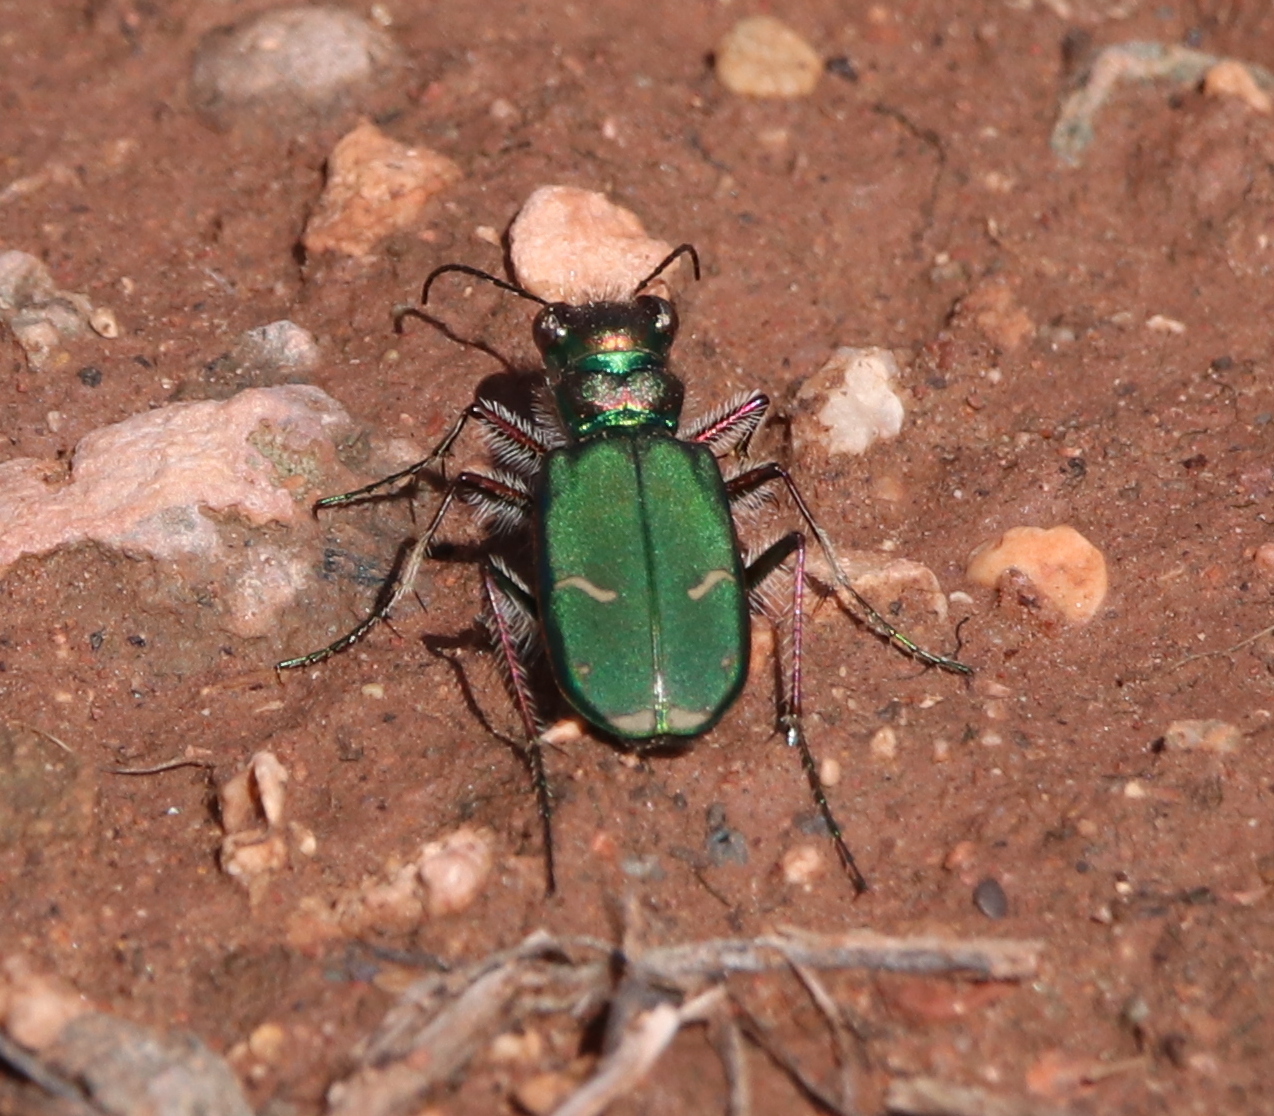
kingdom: Animalia
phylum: Arthropoda
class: Insecta
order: Coleoptera
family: Carabidae
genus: Cicindela
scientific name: Cicindela purpurea
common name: Cow path tiger beetle
